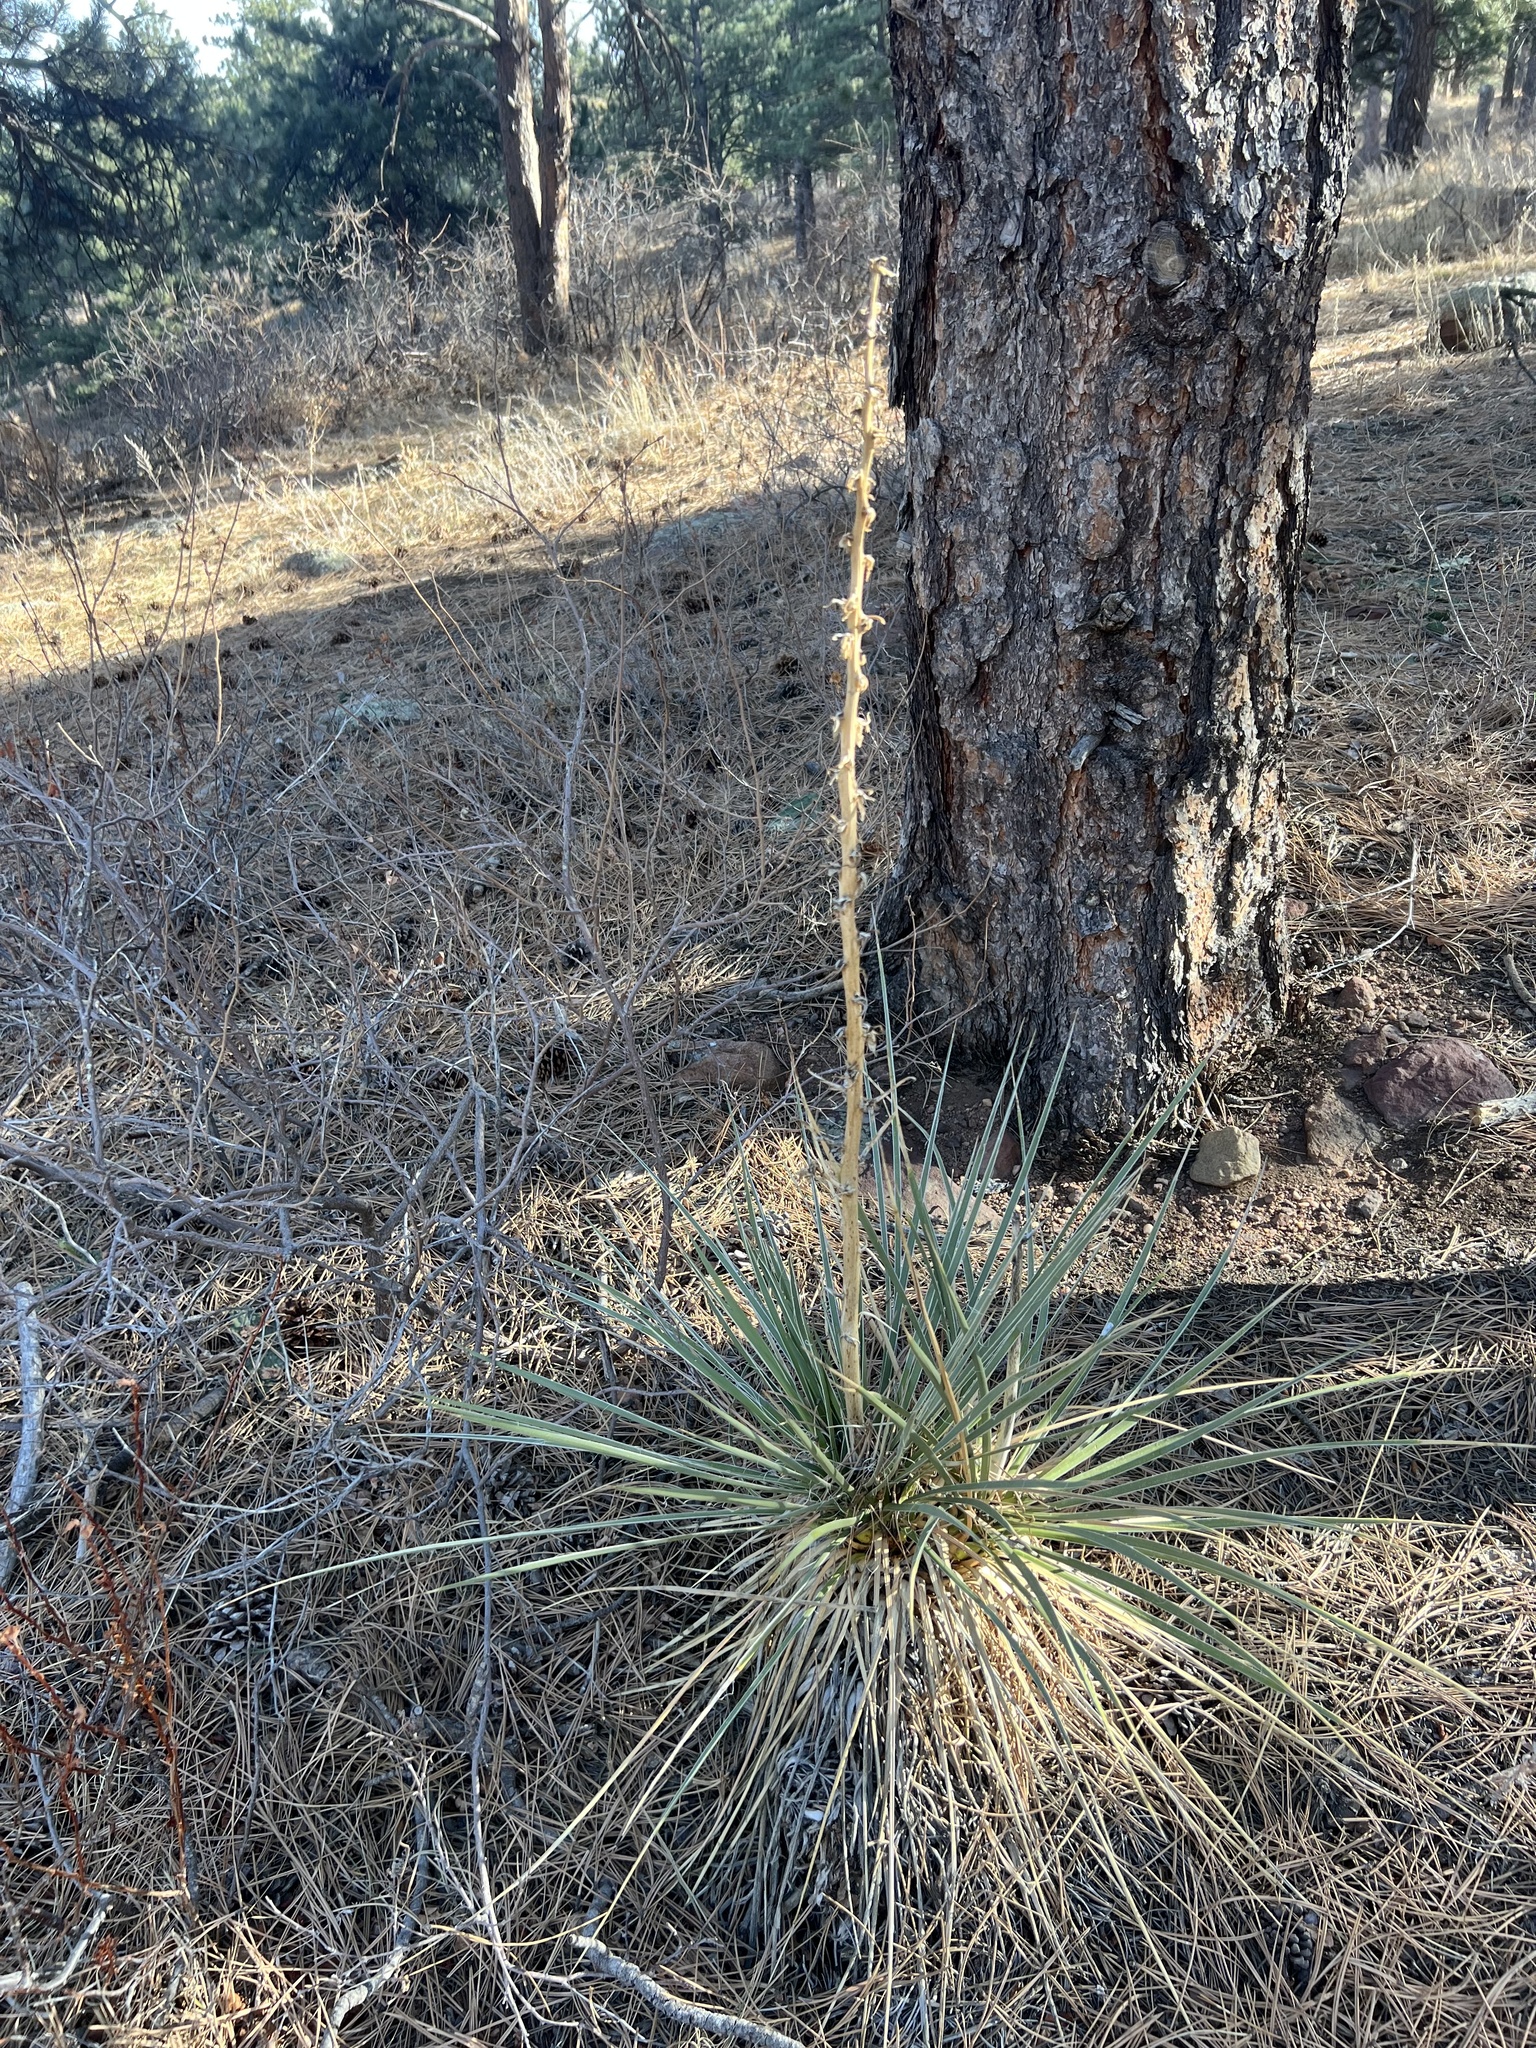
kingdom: Plantae
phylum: Tracheophyta
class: Liliopsida
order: Asparagales
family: Asparagaceae
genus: Yucca
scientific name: Yucca glauca
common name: Great plains yucca
